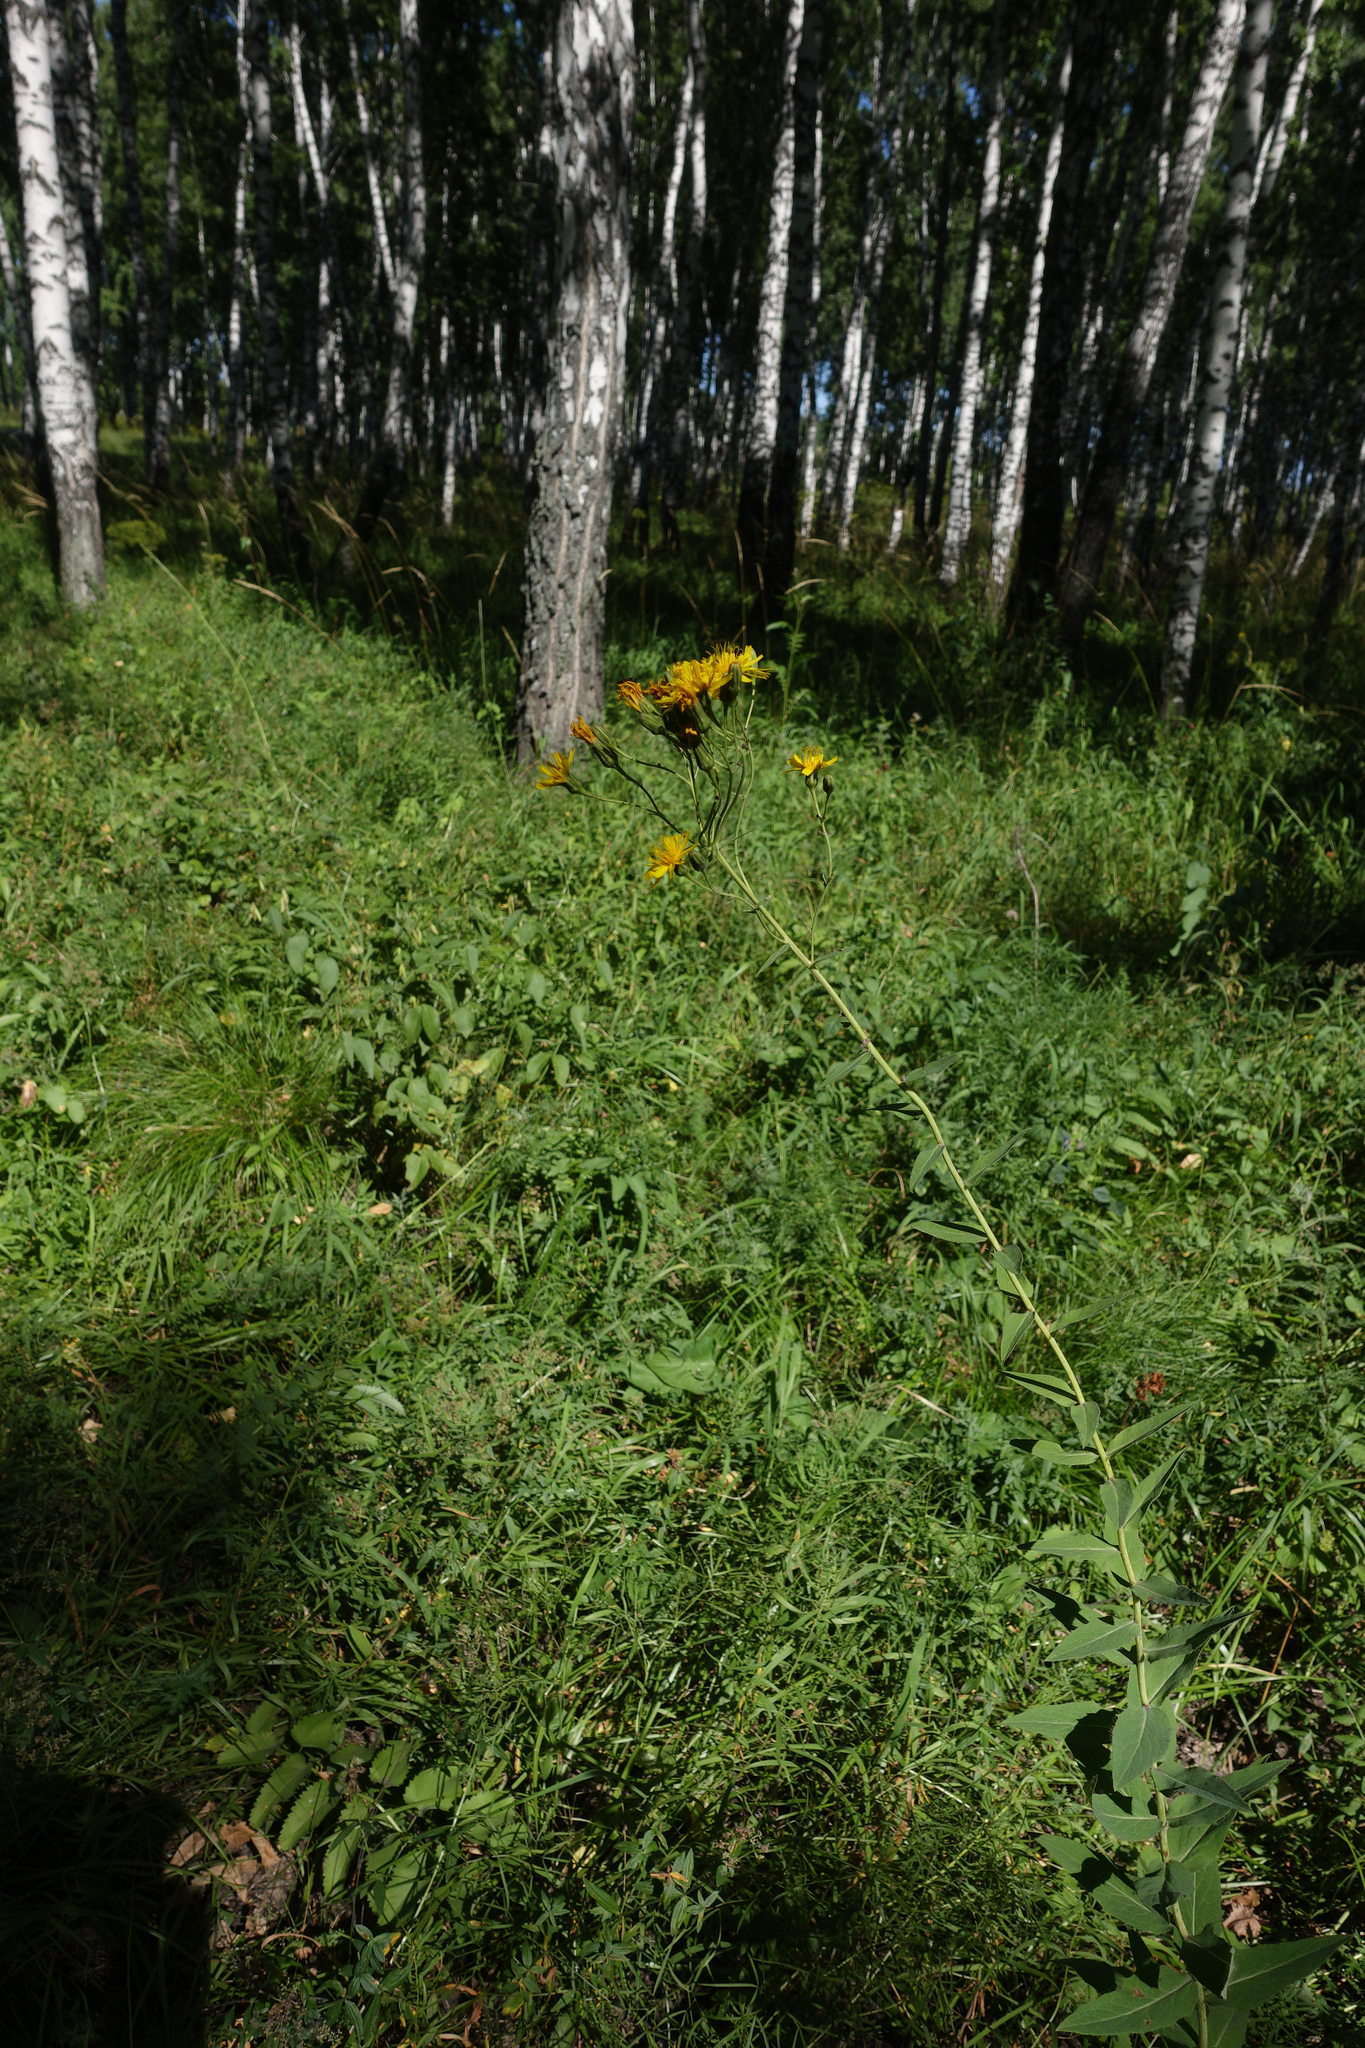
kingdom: Plantae
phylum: Tracheophyta
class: Magnoliopsida
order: Asterales
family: Asteraceae
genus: Crepis
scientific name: Crepis sibirica
